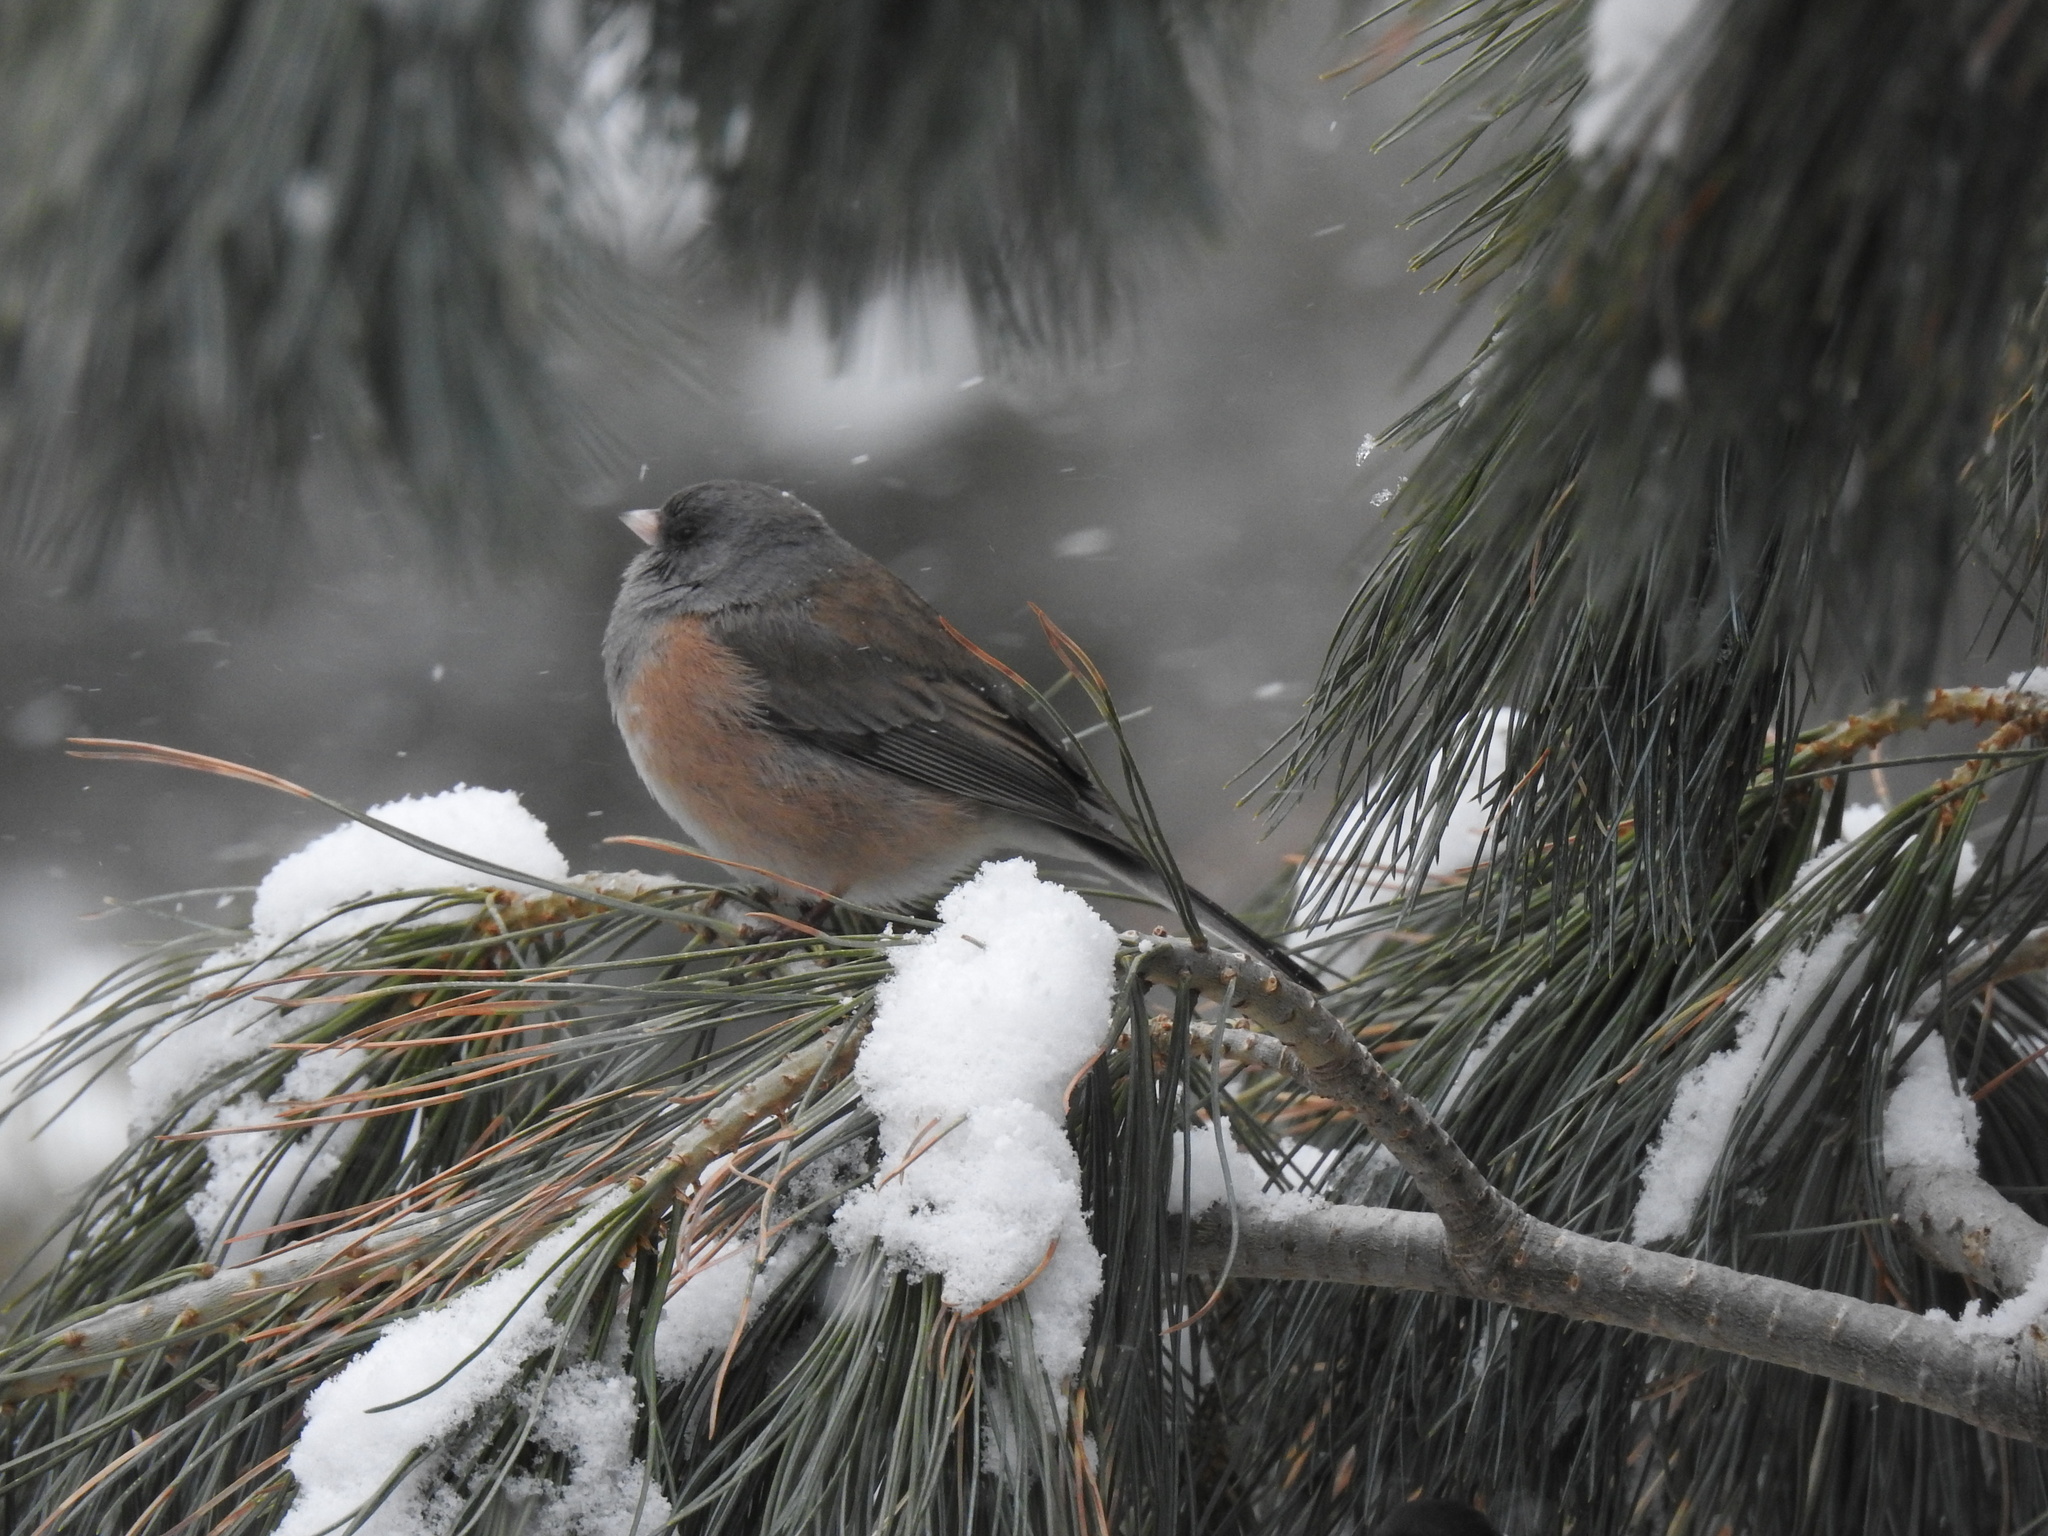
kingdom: Animalia
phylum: Chordata
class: Aves
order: Passeriformes
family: Passerellidae
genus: Junco
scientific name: Junco hyemalis
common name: Dark-eyed junco
